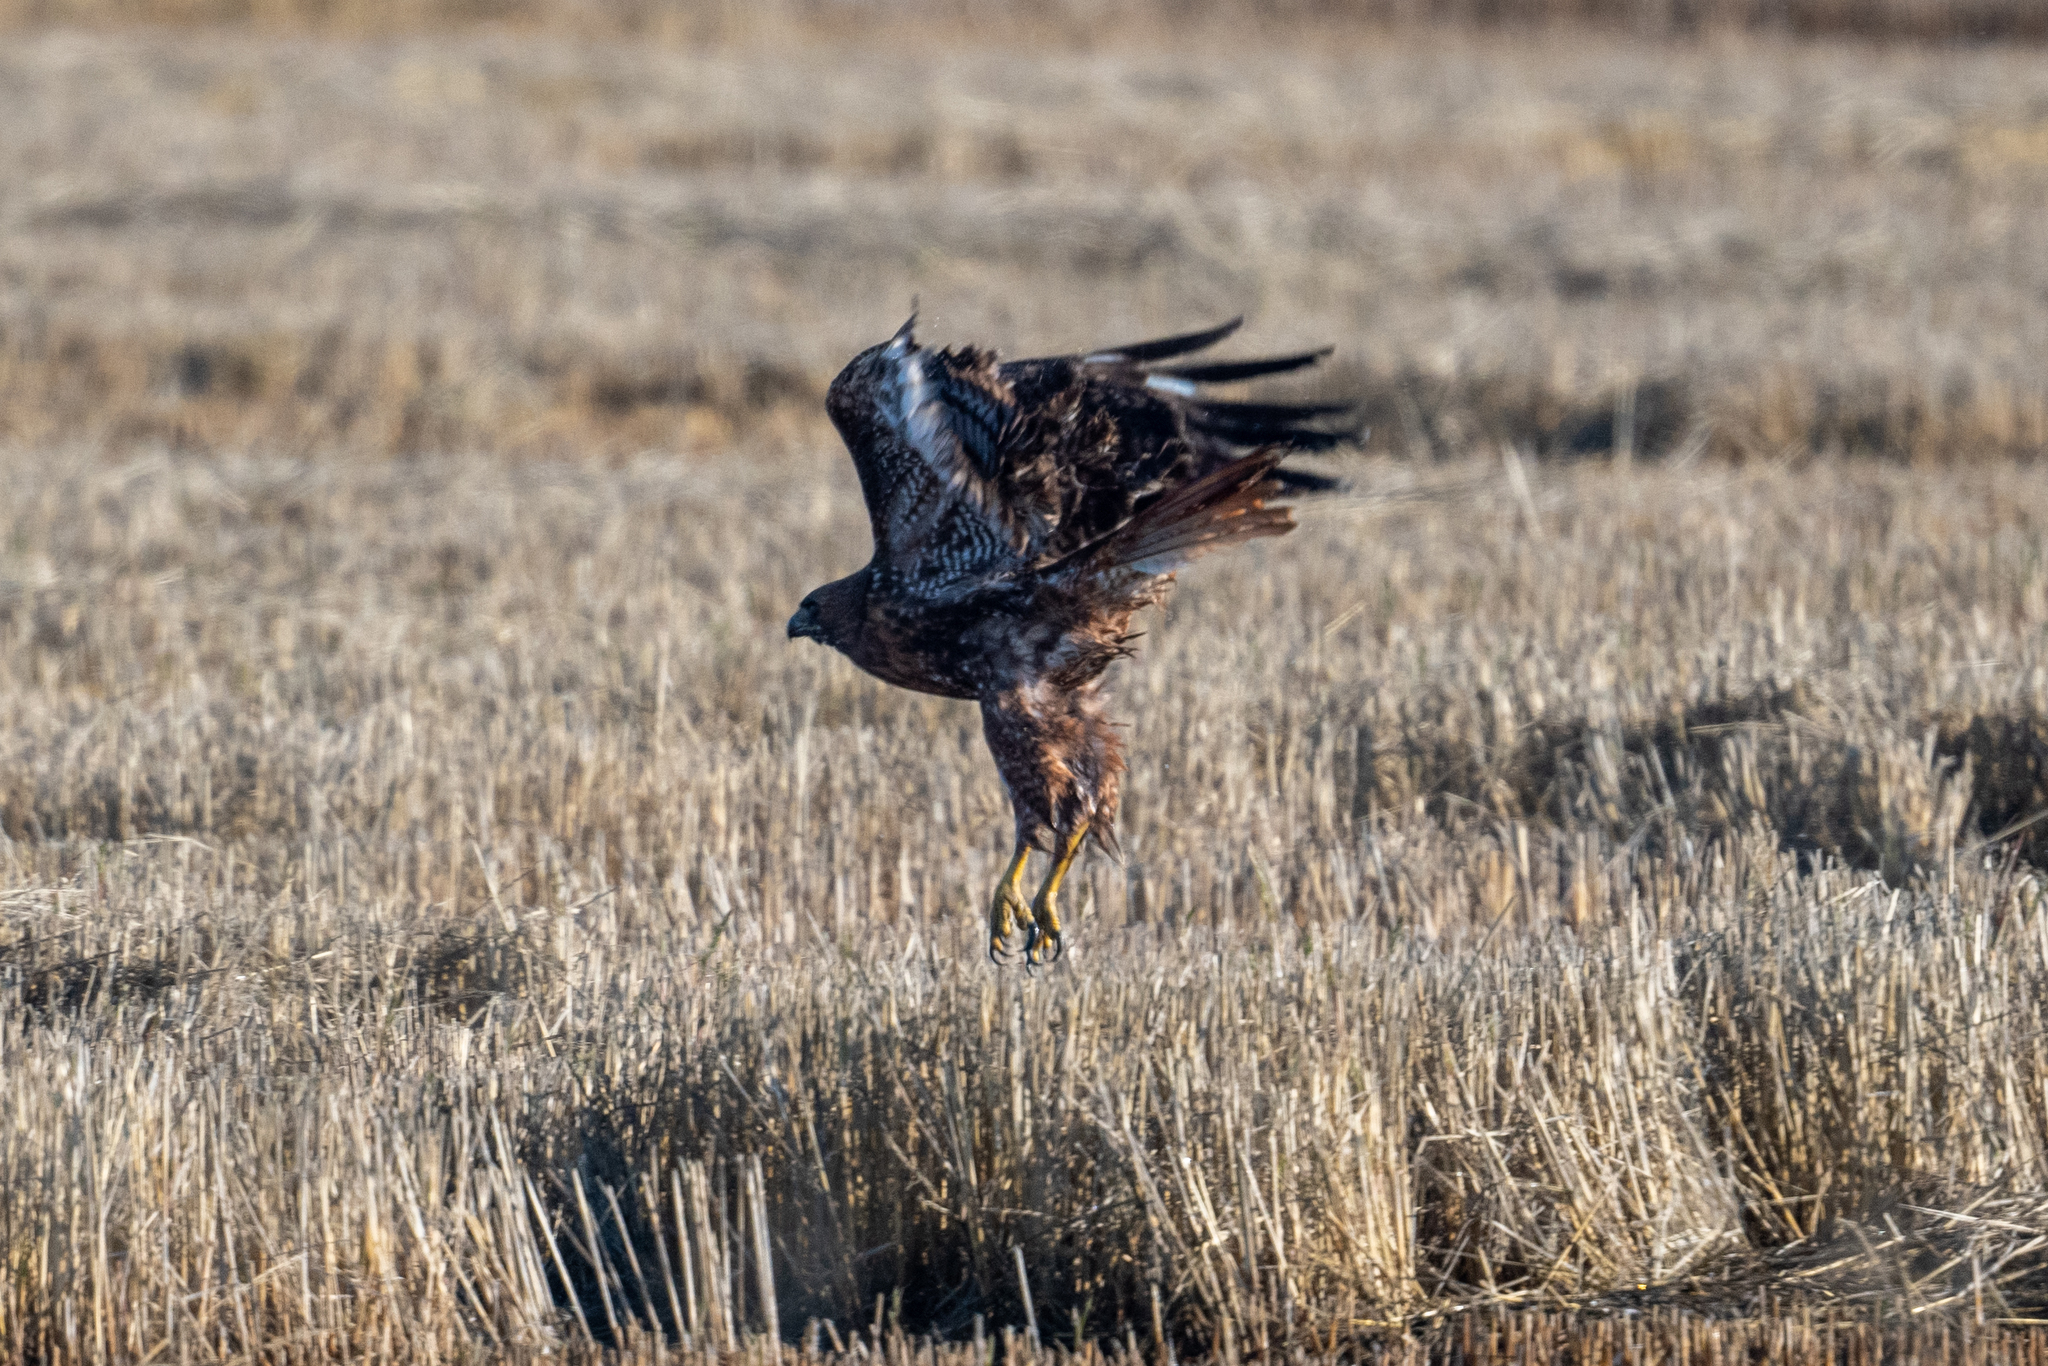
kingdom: Animalia
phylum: Chordata
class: Aves
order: Accipitriformes
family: Accipitridae
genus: Buteo
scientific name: Buteo jamaicensis
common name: Red-tailed hawk
